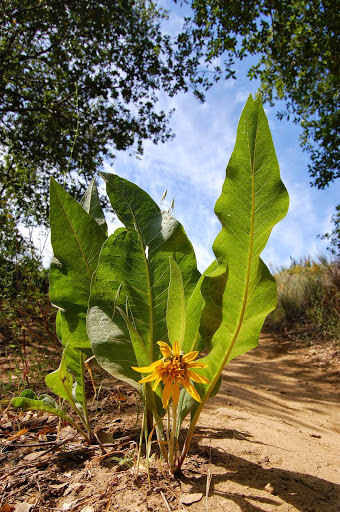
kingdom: Plantae
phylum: Tracheophyta
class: Magnoliopsida
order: Asterales
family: Asteraceae
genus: Wyethia
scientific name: Wyethia helenioides
